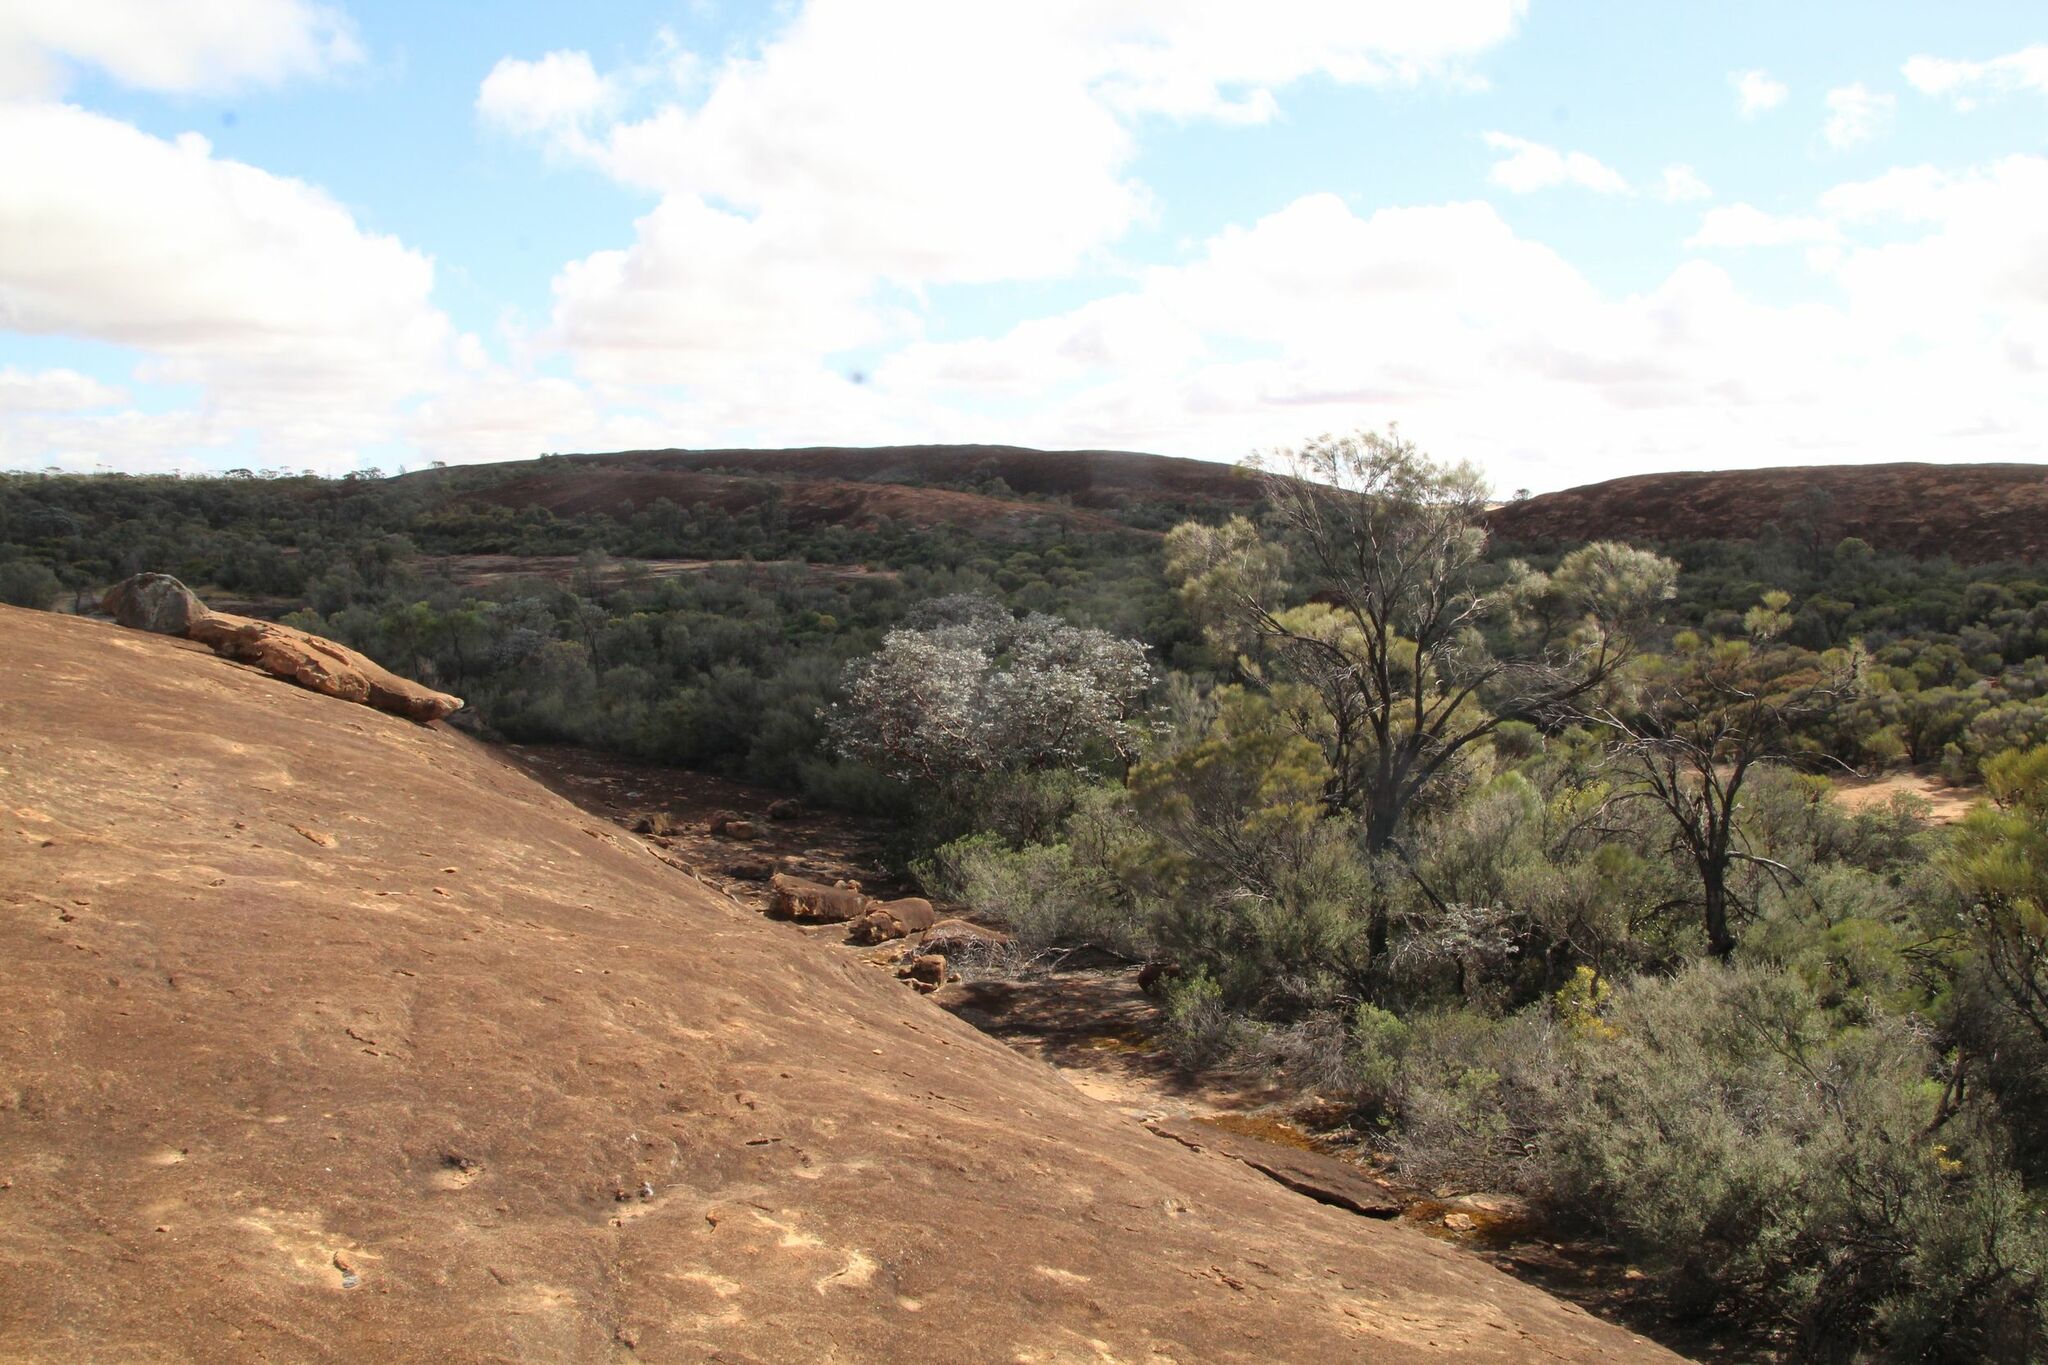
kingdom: Plantae
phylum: Tracheophyta
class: Magnoliopsida
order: Myrtales
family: Myrtaceae
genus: Eucalyptus
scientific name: Eucalyptus crucis
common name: Southern cross silver mallee
